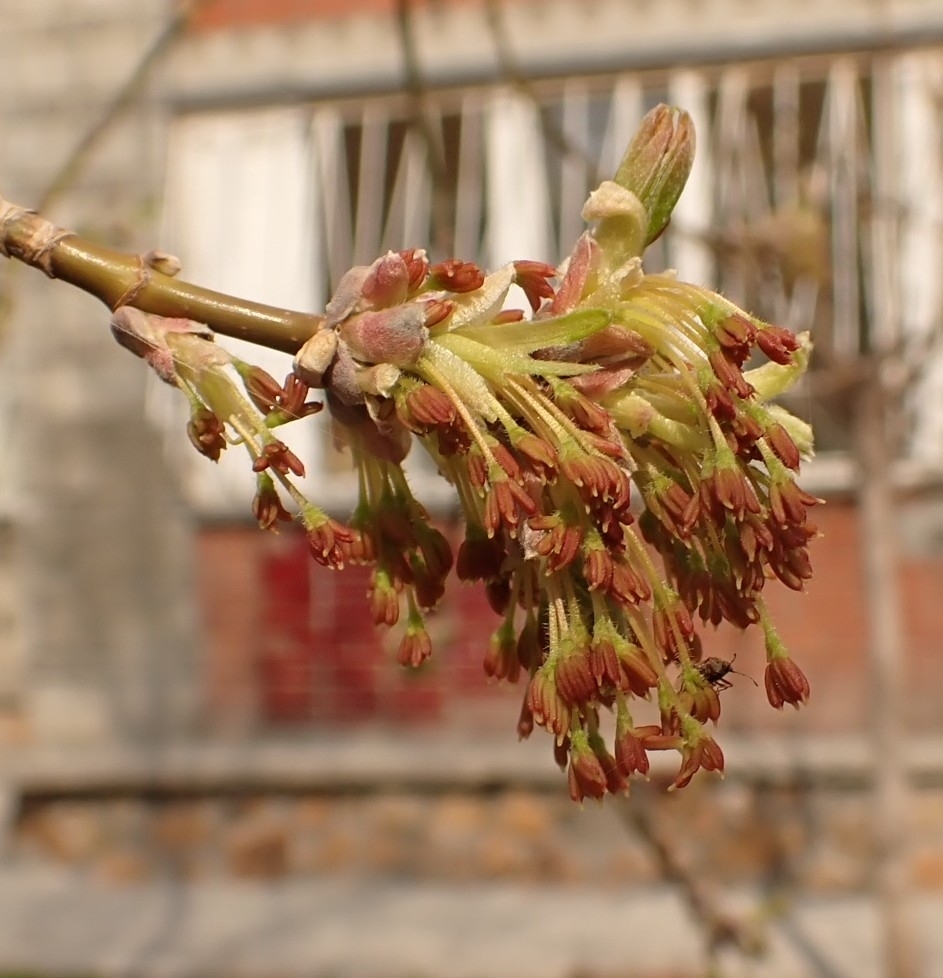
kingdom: Plantae
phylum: Tracheophyta
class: Magnoliopsida
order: Sapindales
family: Sapindaceae
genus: Acer
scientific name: Acer negundo
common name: Ashleaf maple
